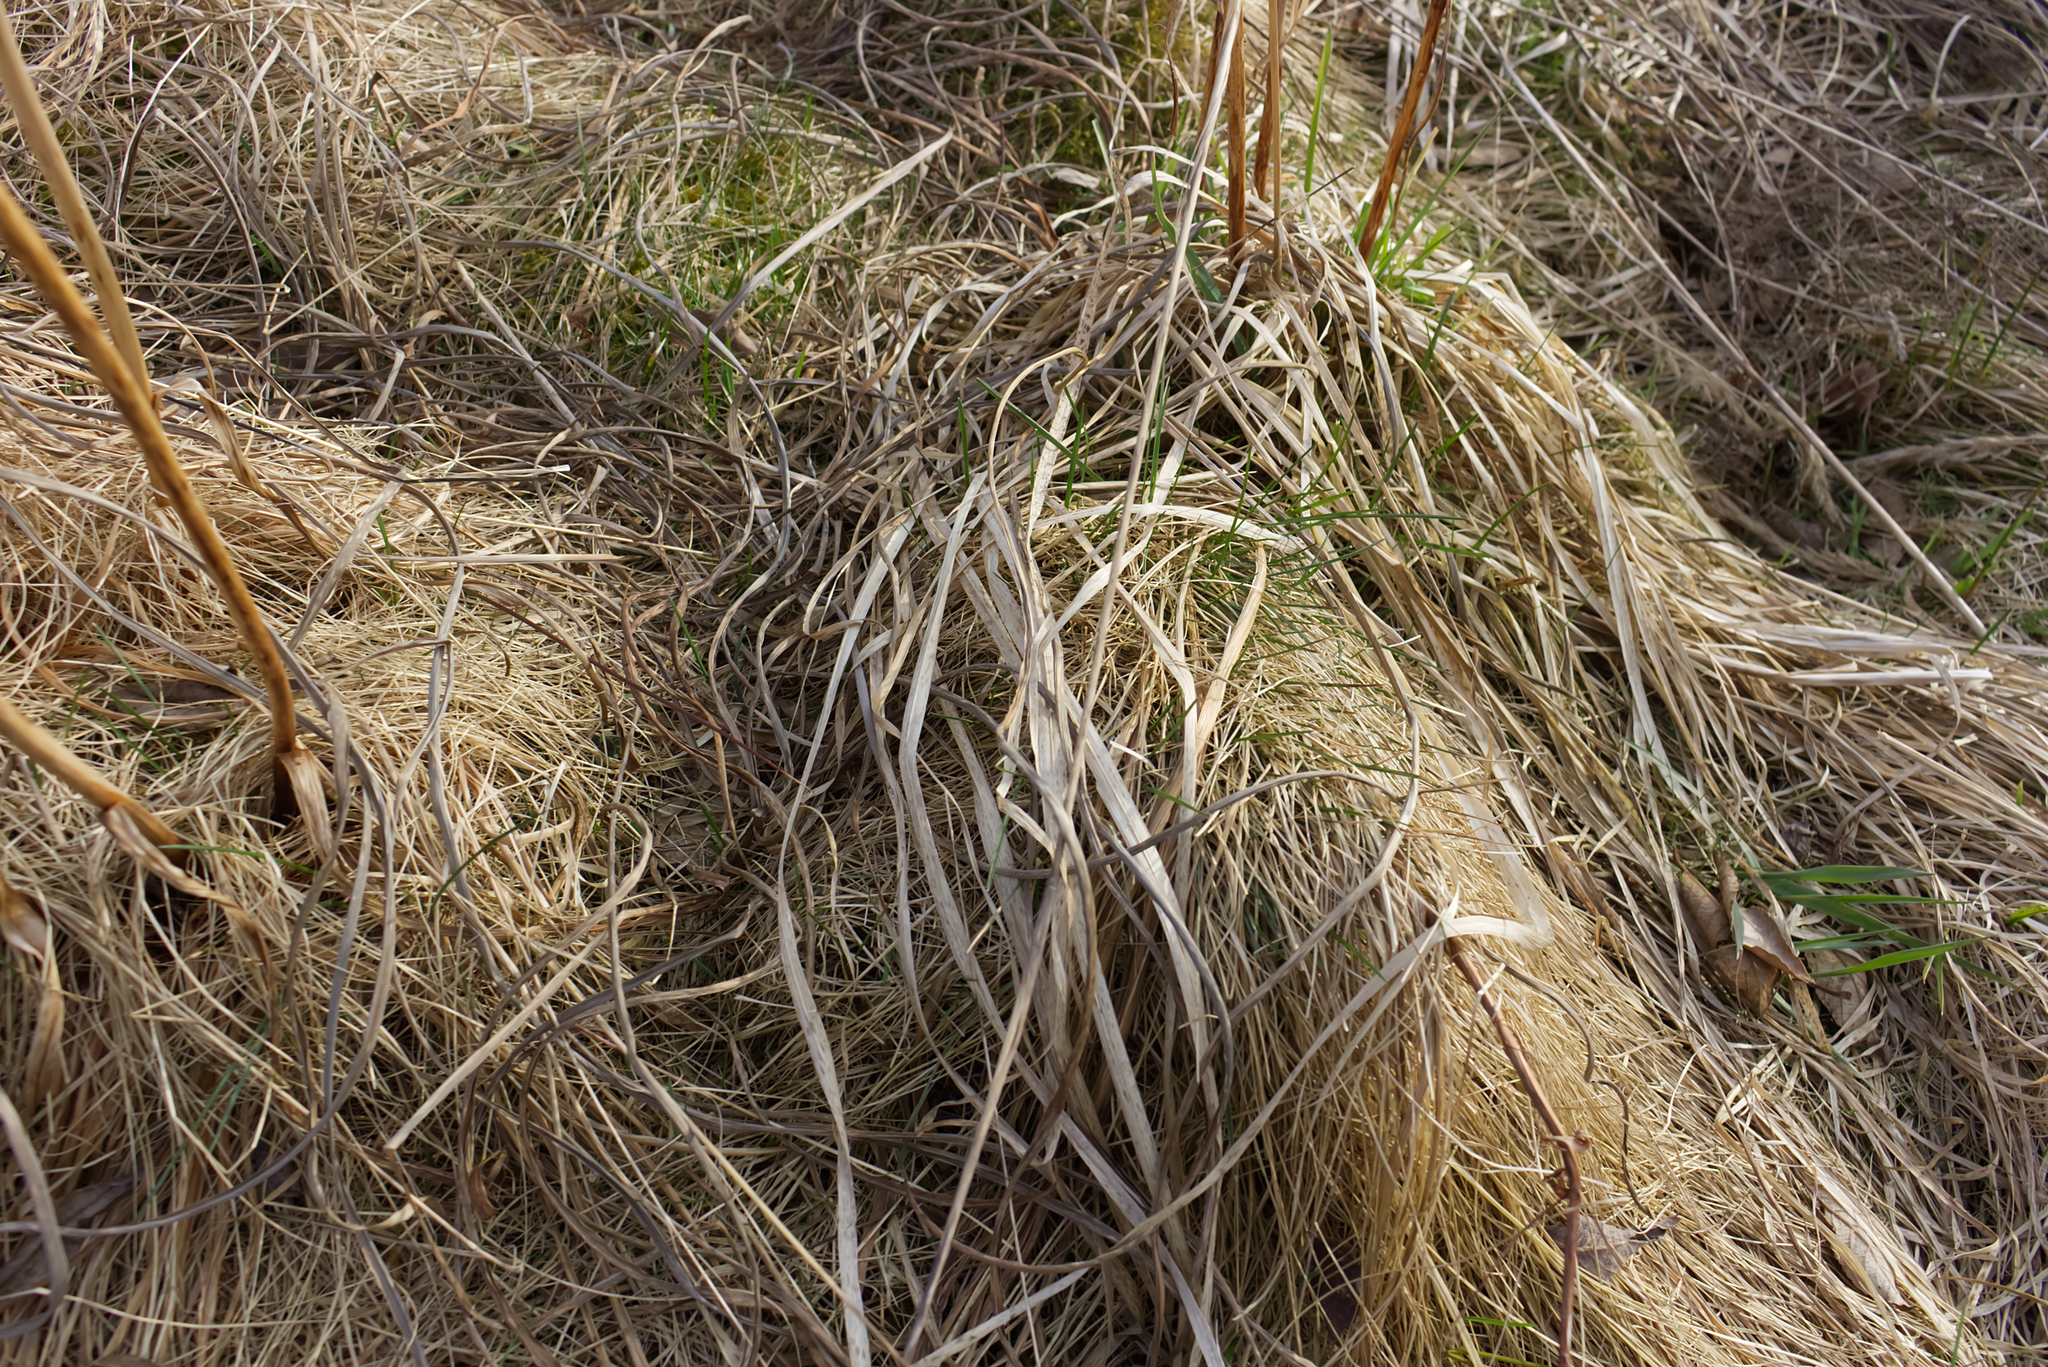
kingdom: Plantae
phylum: Tracheophyta
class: Liliopsida
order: Asparagales
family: Iridaceae
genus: Iris
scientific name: Iris sibirica
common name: Siberian iris
